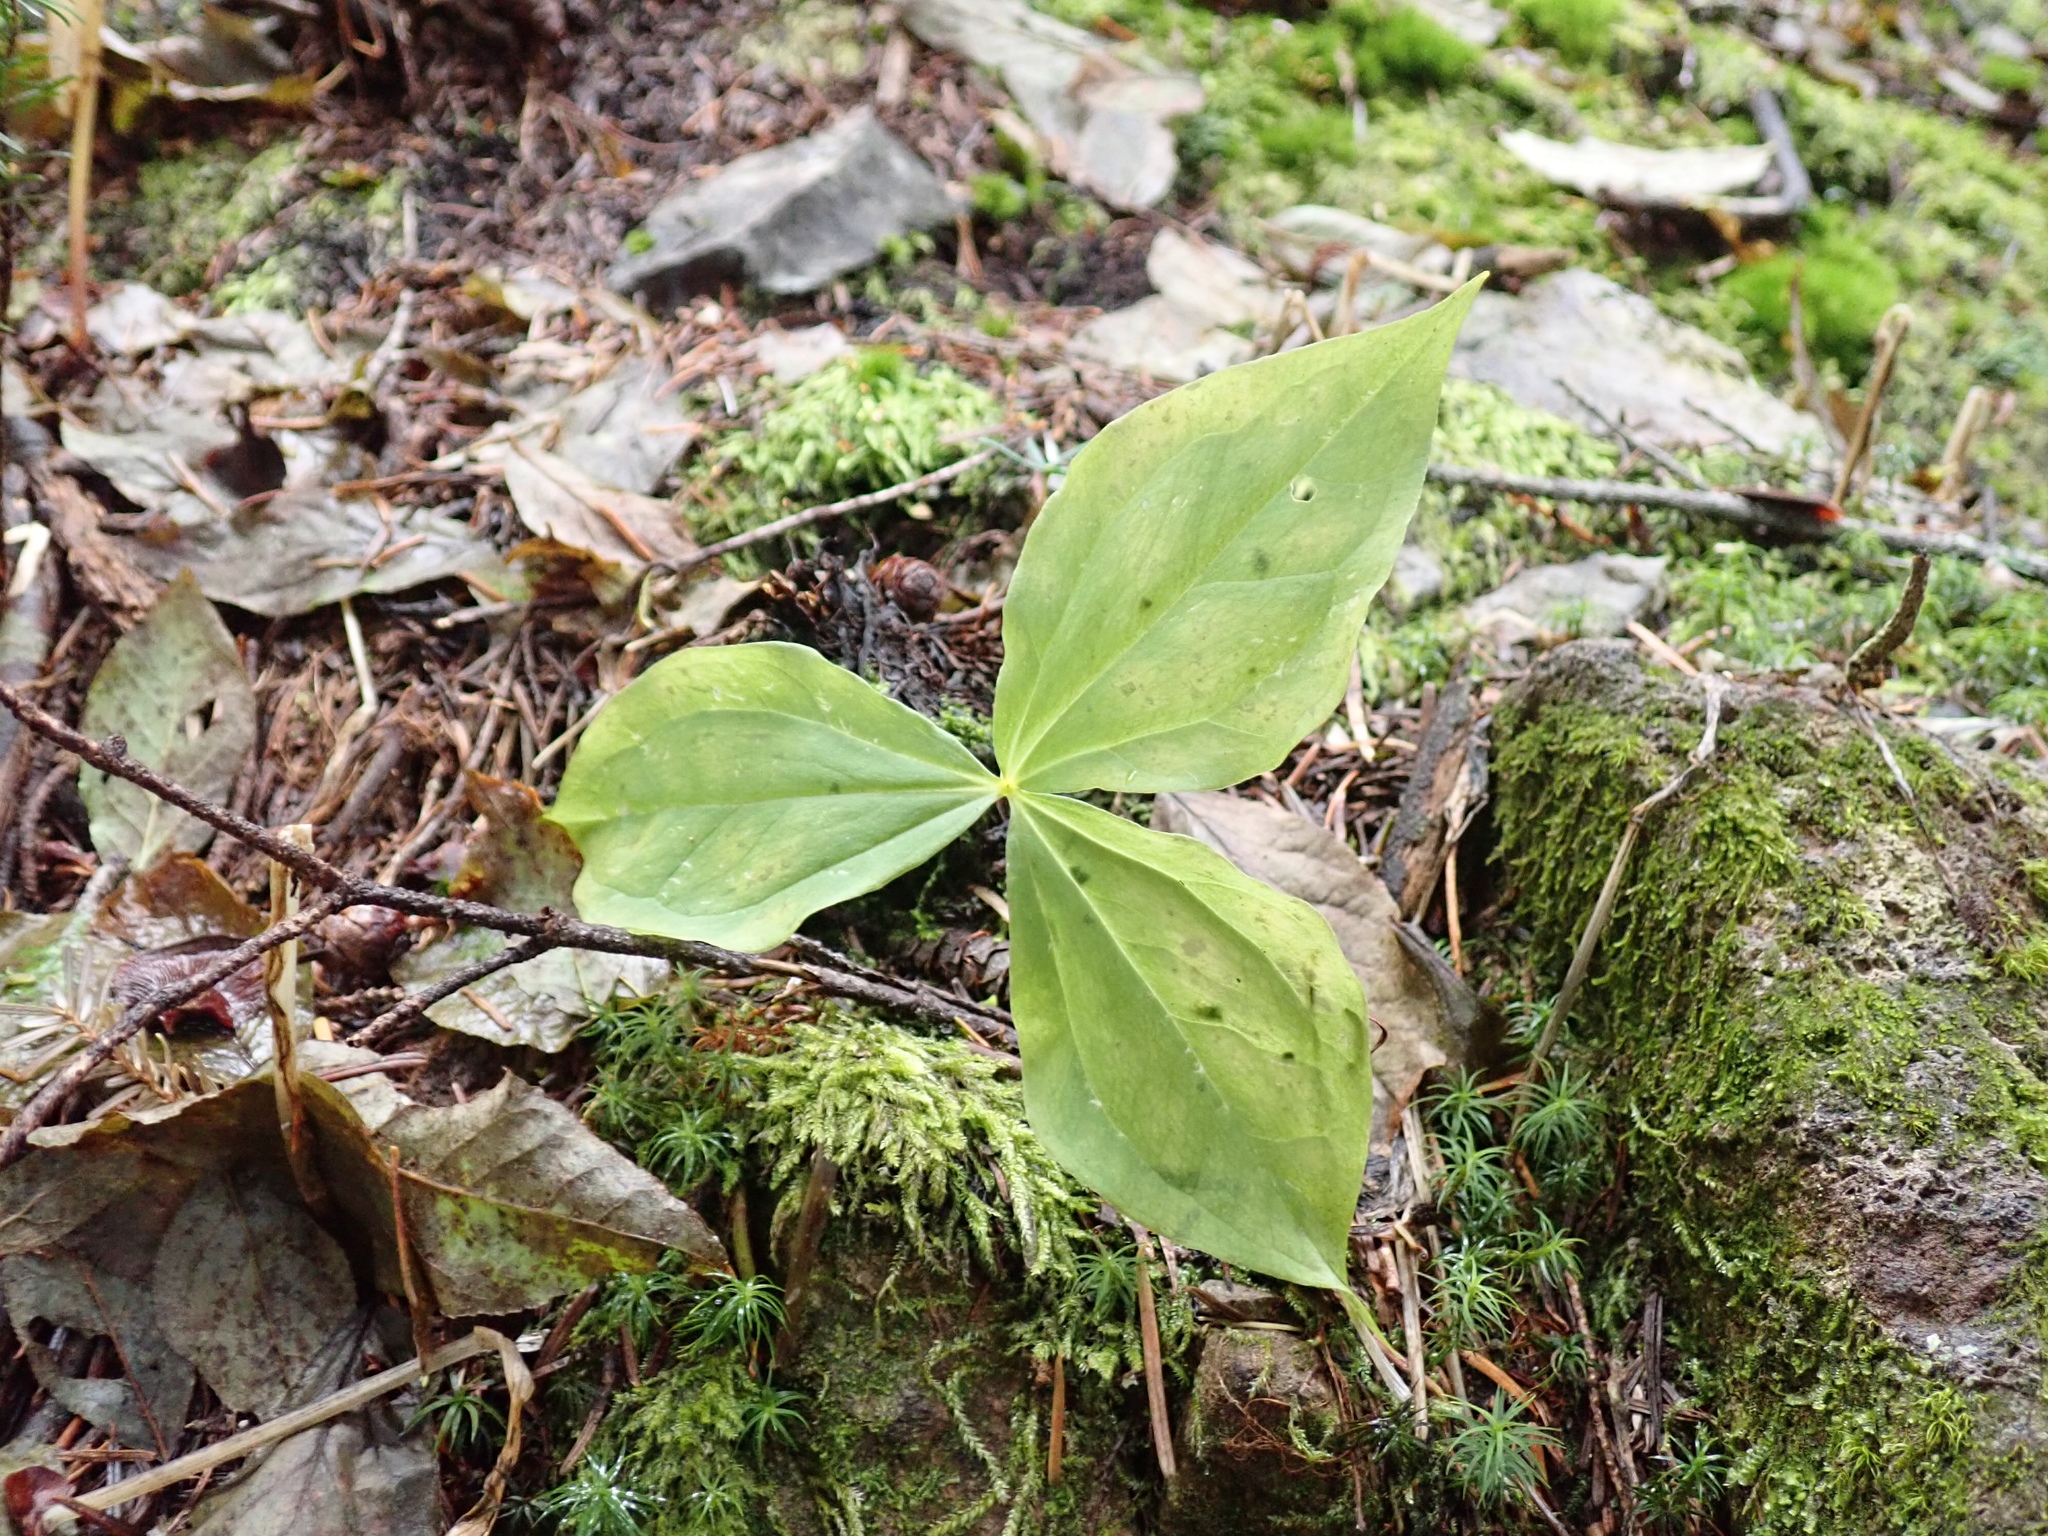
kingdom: Plantae
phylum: Tracheophyta
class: Liliopsida
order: Liliales
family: Melanthiaceae
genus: Trillium
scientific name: Trillium ovatum
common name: Pacific trillium
